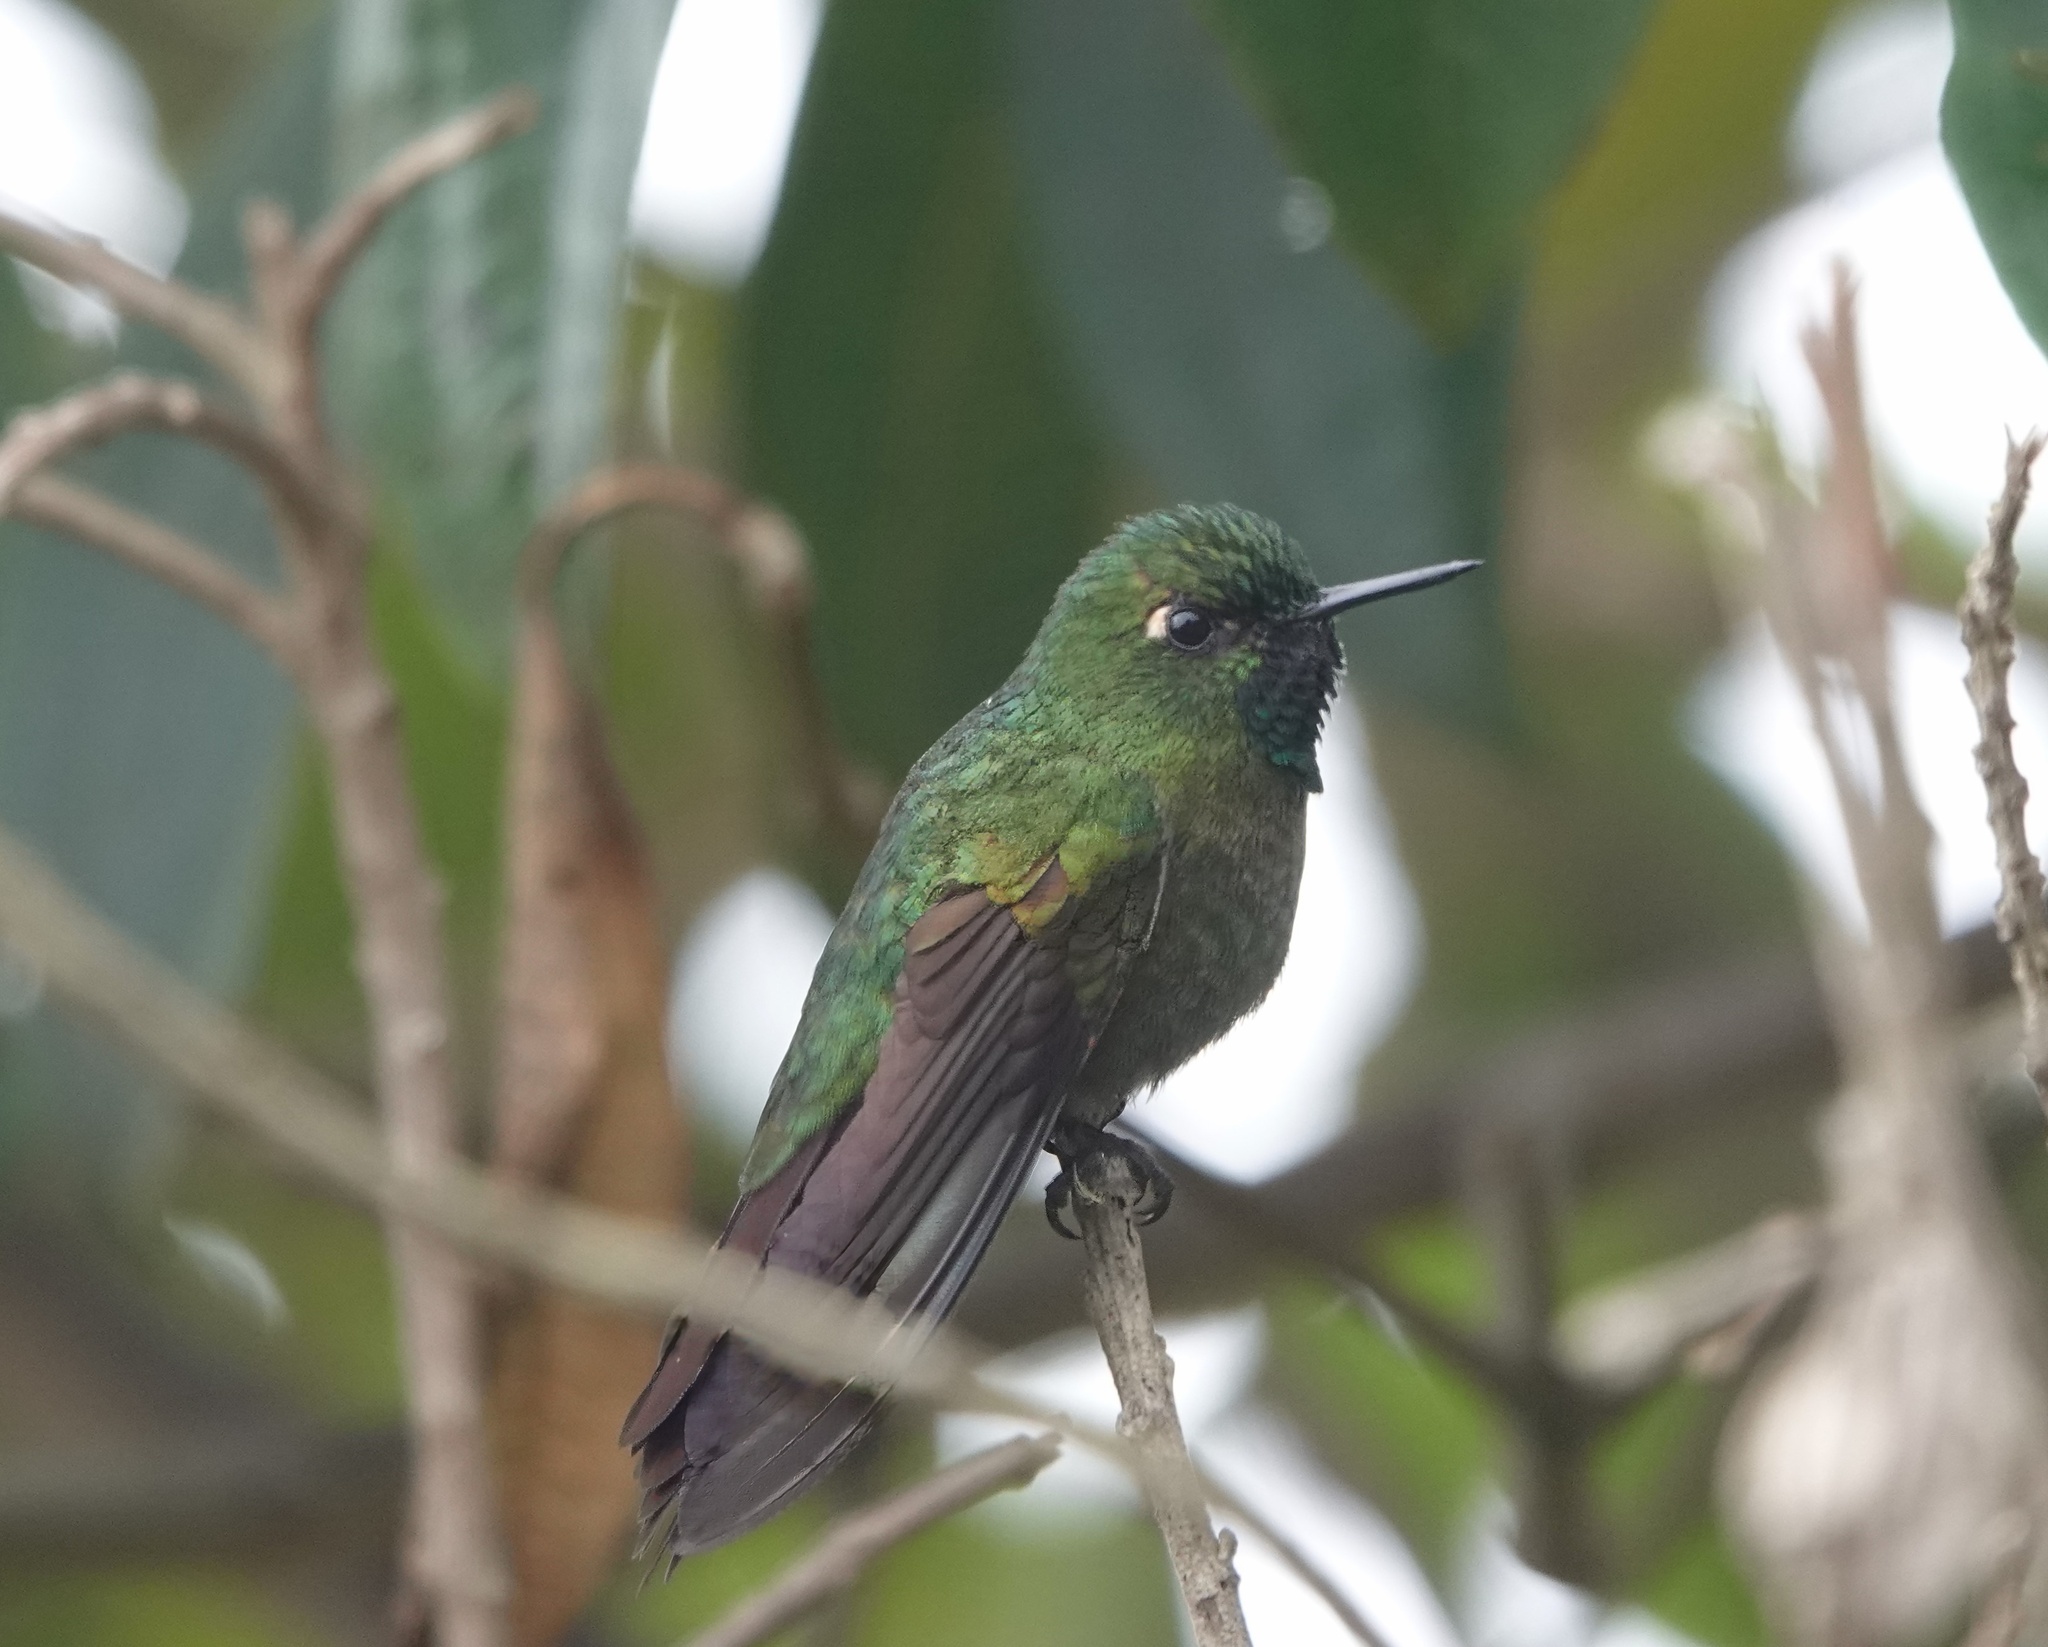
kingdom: Animalia
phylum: Chordata
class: Aves
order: Apodiformes
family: Trochilidae
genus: Metallura
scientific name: Metallura tyrianthina
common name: Tyrian metaltail
